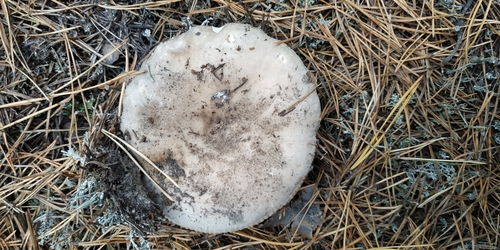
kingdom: Fungi
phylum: Basidiomycota
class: Agaricomycetes
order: Russulales
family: Russulaceae
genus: Russula
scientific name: Russula
